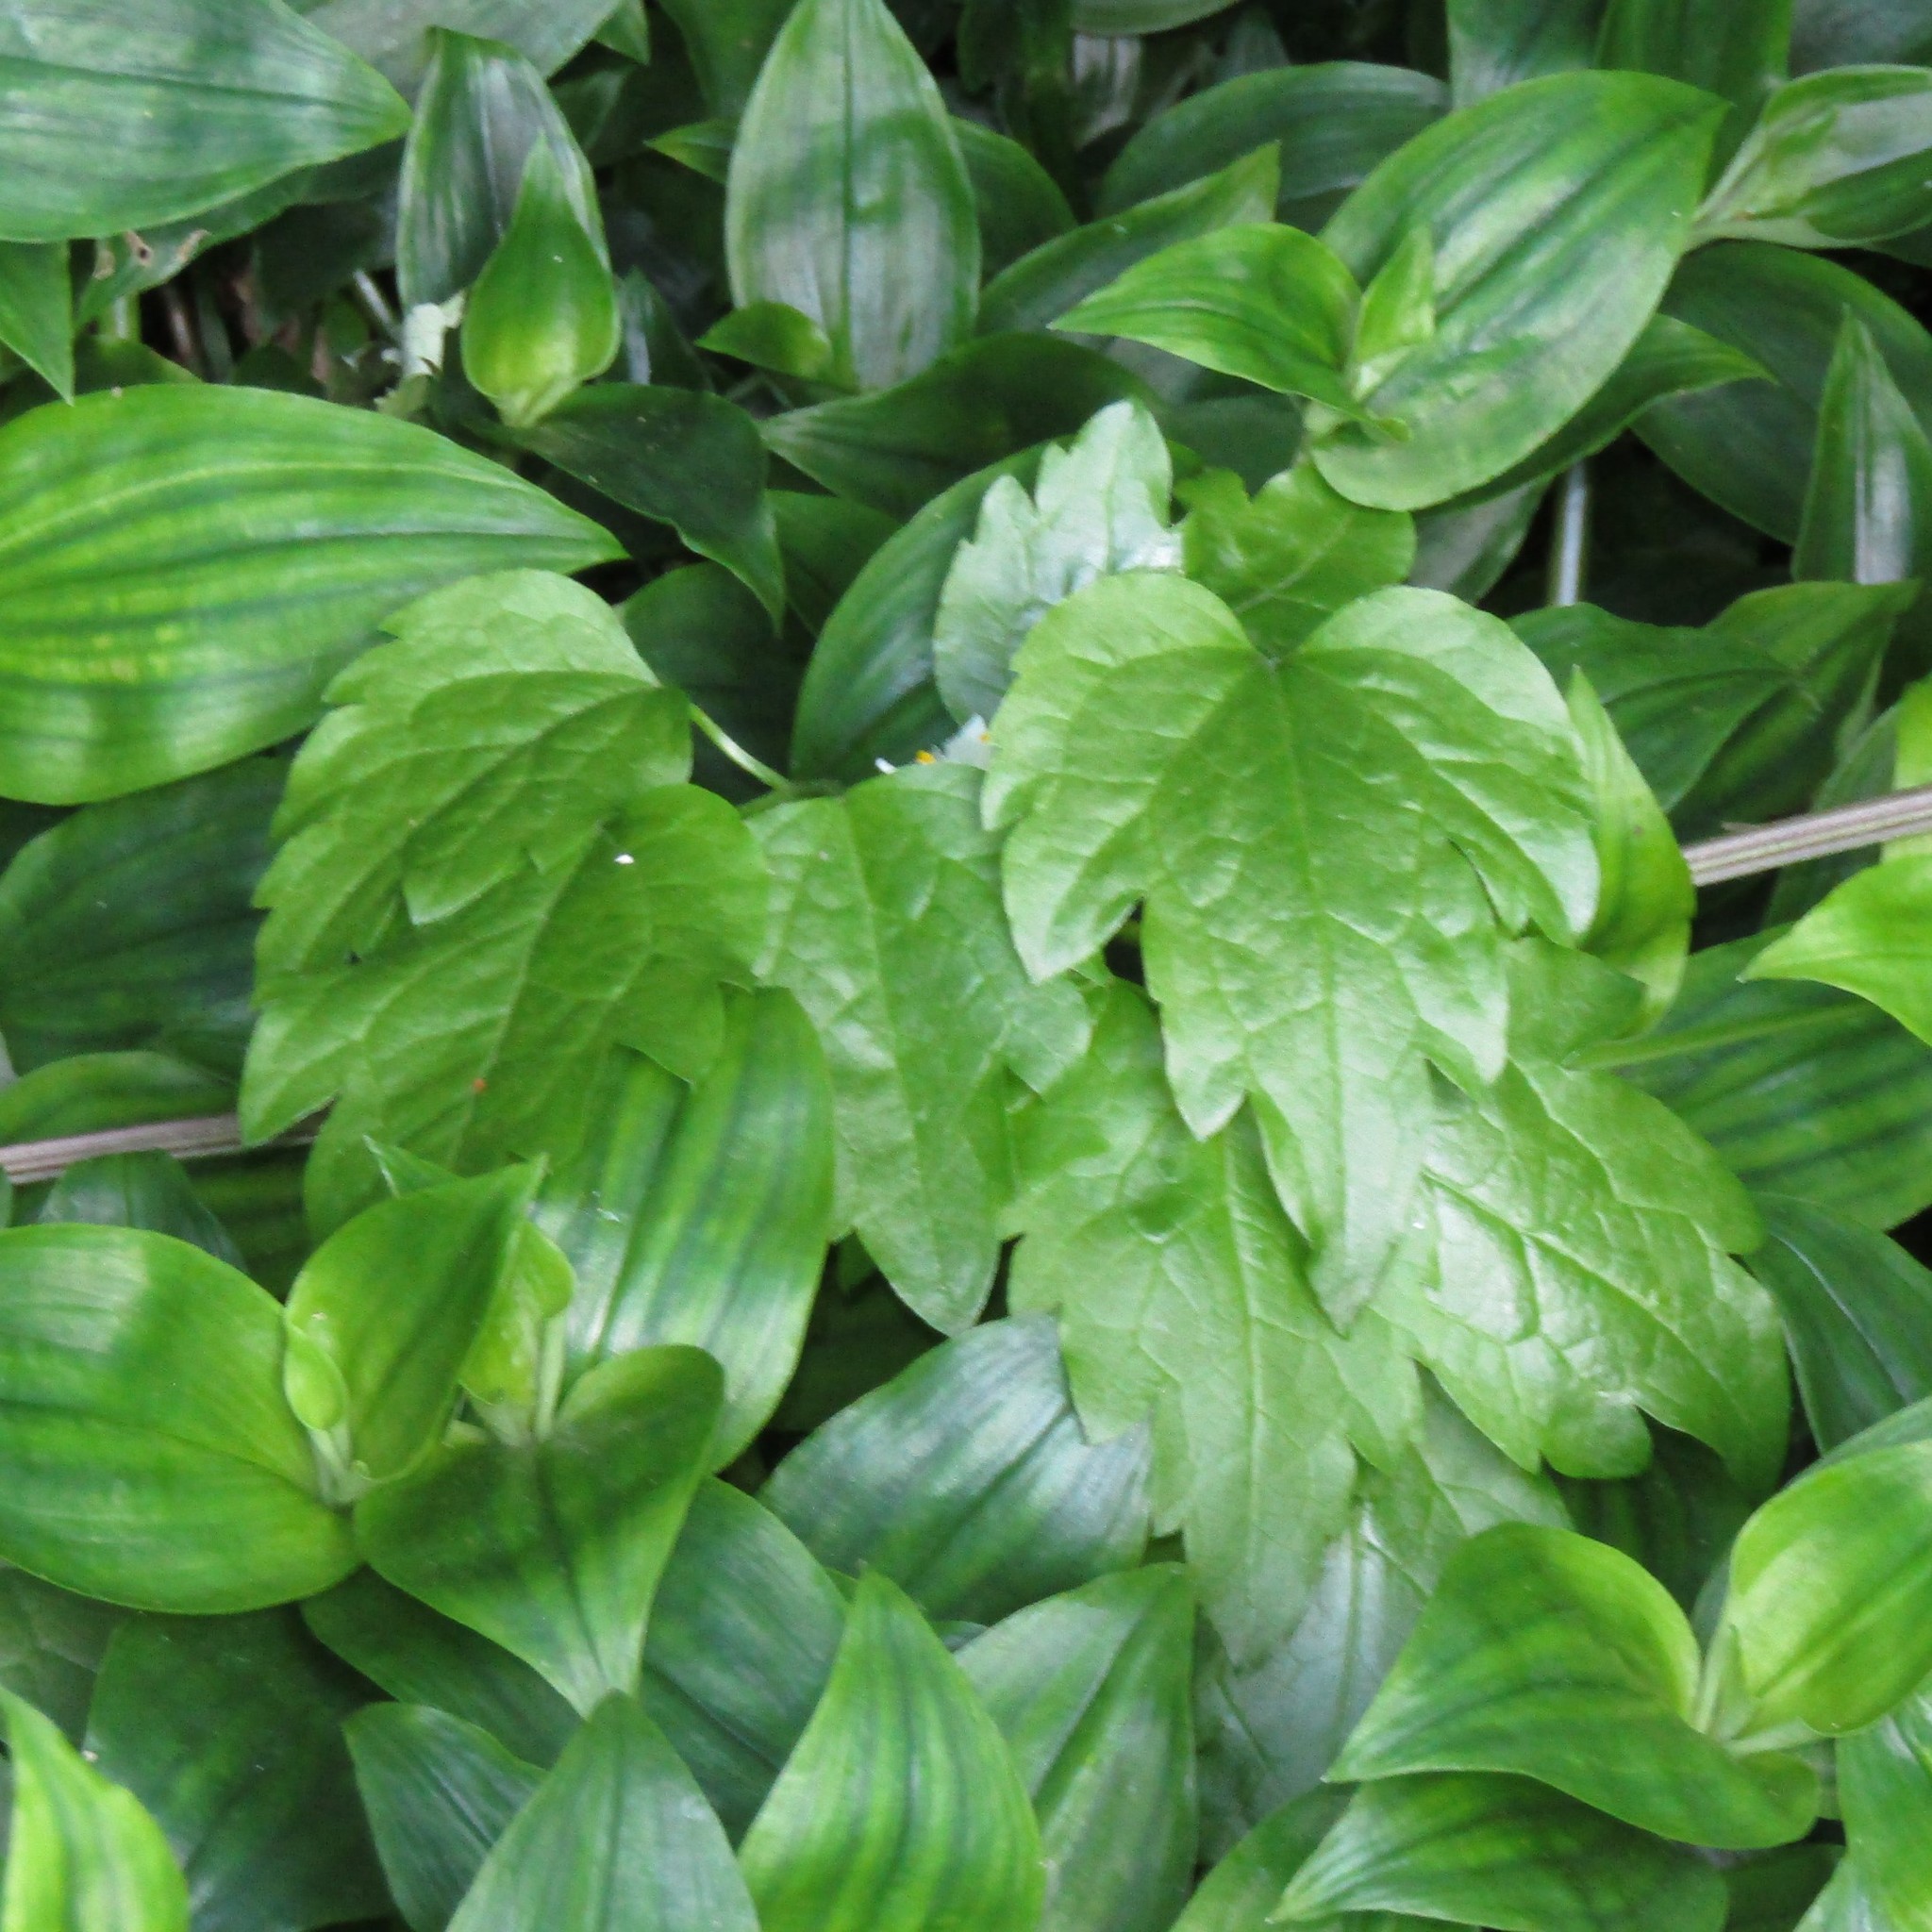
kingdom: Plantae
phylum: Tracheophyta
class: Magnoliopsida
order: Ranunculales
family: Ranunculaceae
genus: Clematis
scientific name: Clematis vitalba
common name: Evergreen clematis
